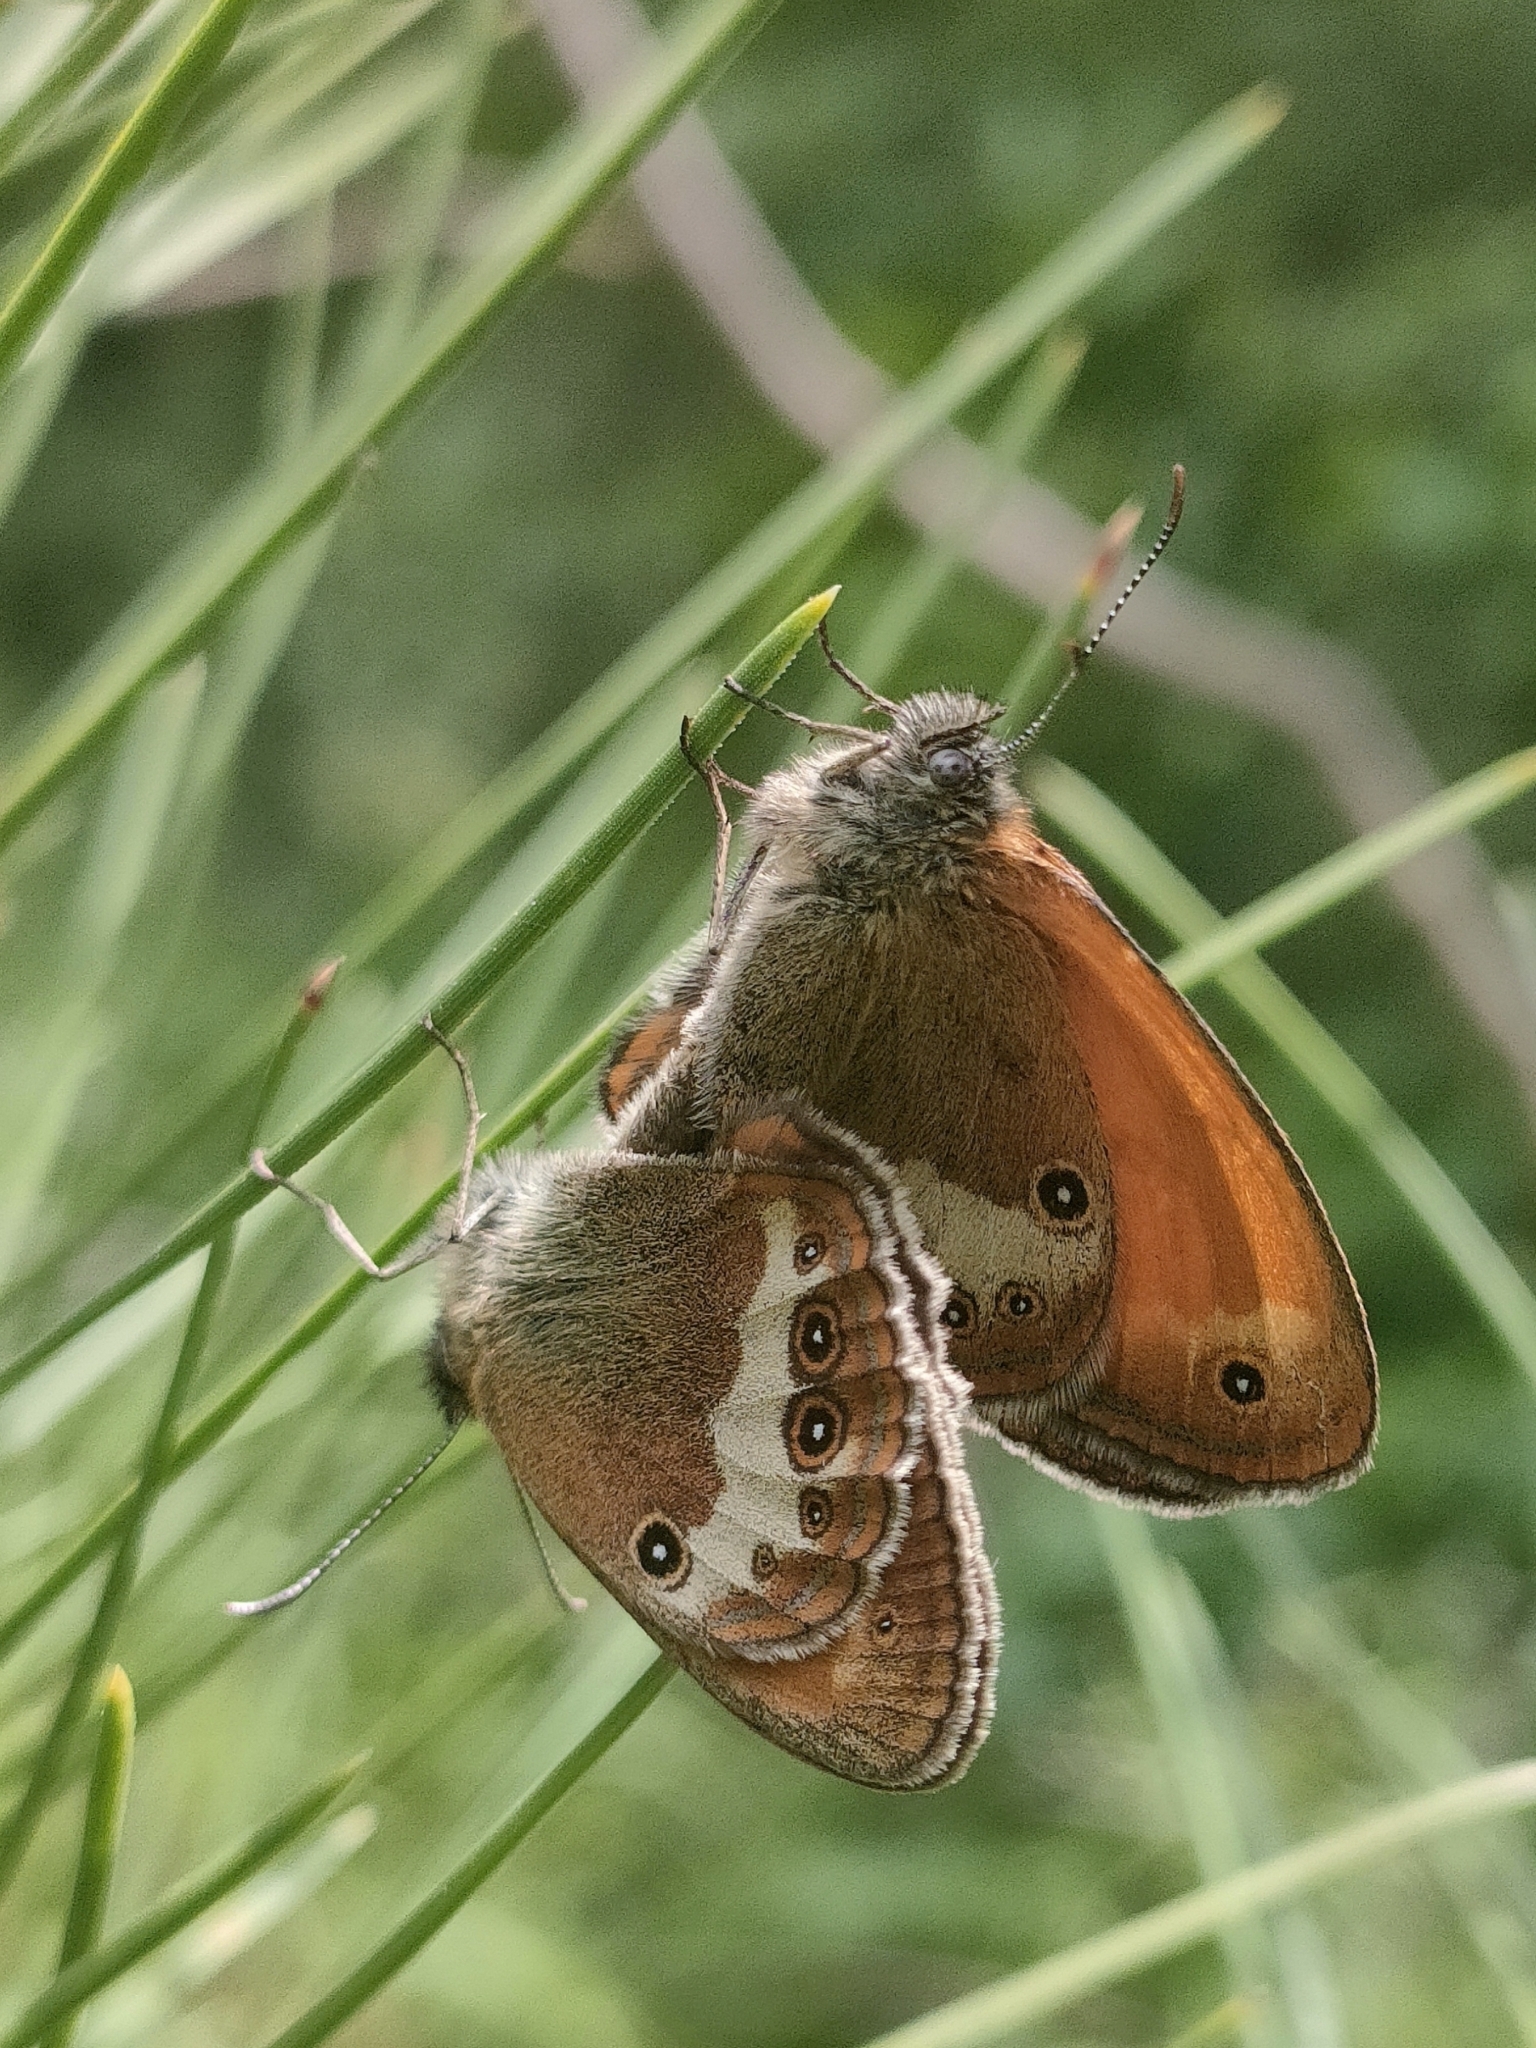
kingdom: Animalia
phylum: Arthropoda
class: Insecta
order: Lepidoptera
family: Nymphalidae
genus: Coenonympha
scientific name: Coenonympha arcania
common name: Pearly heath
